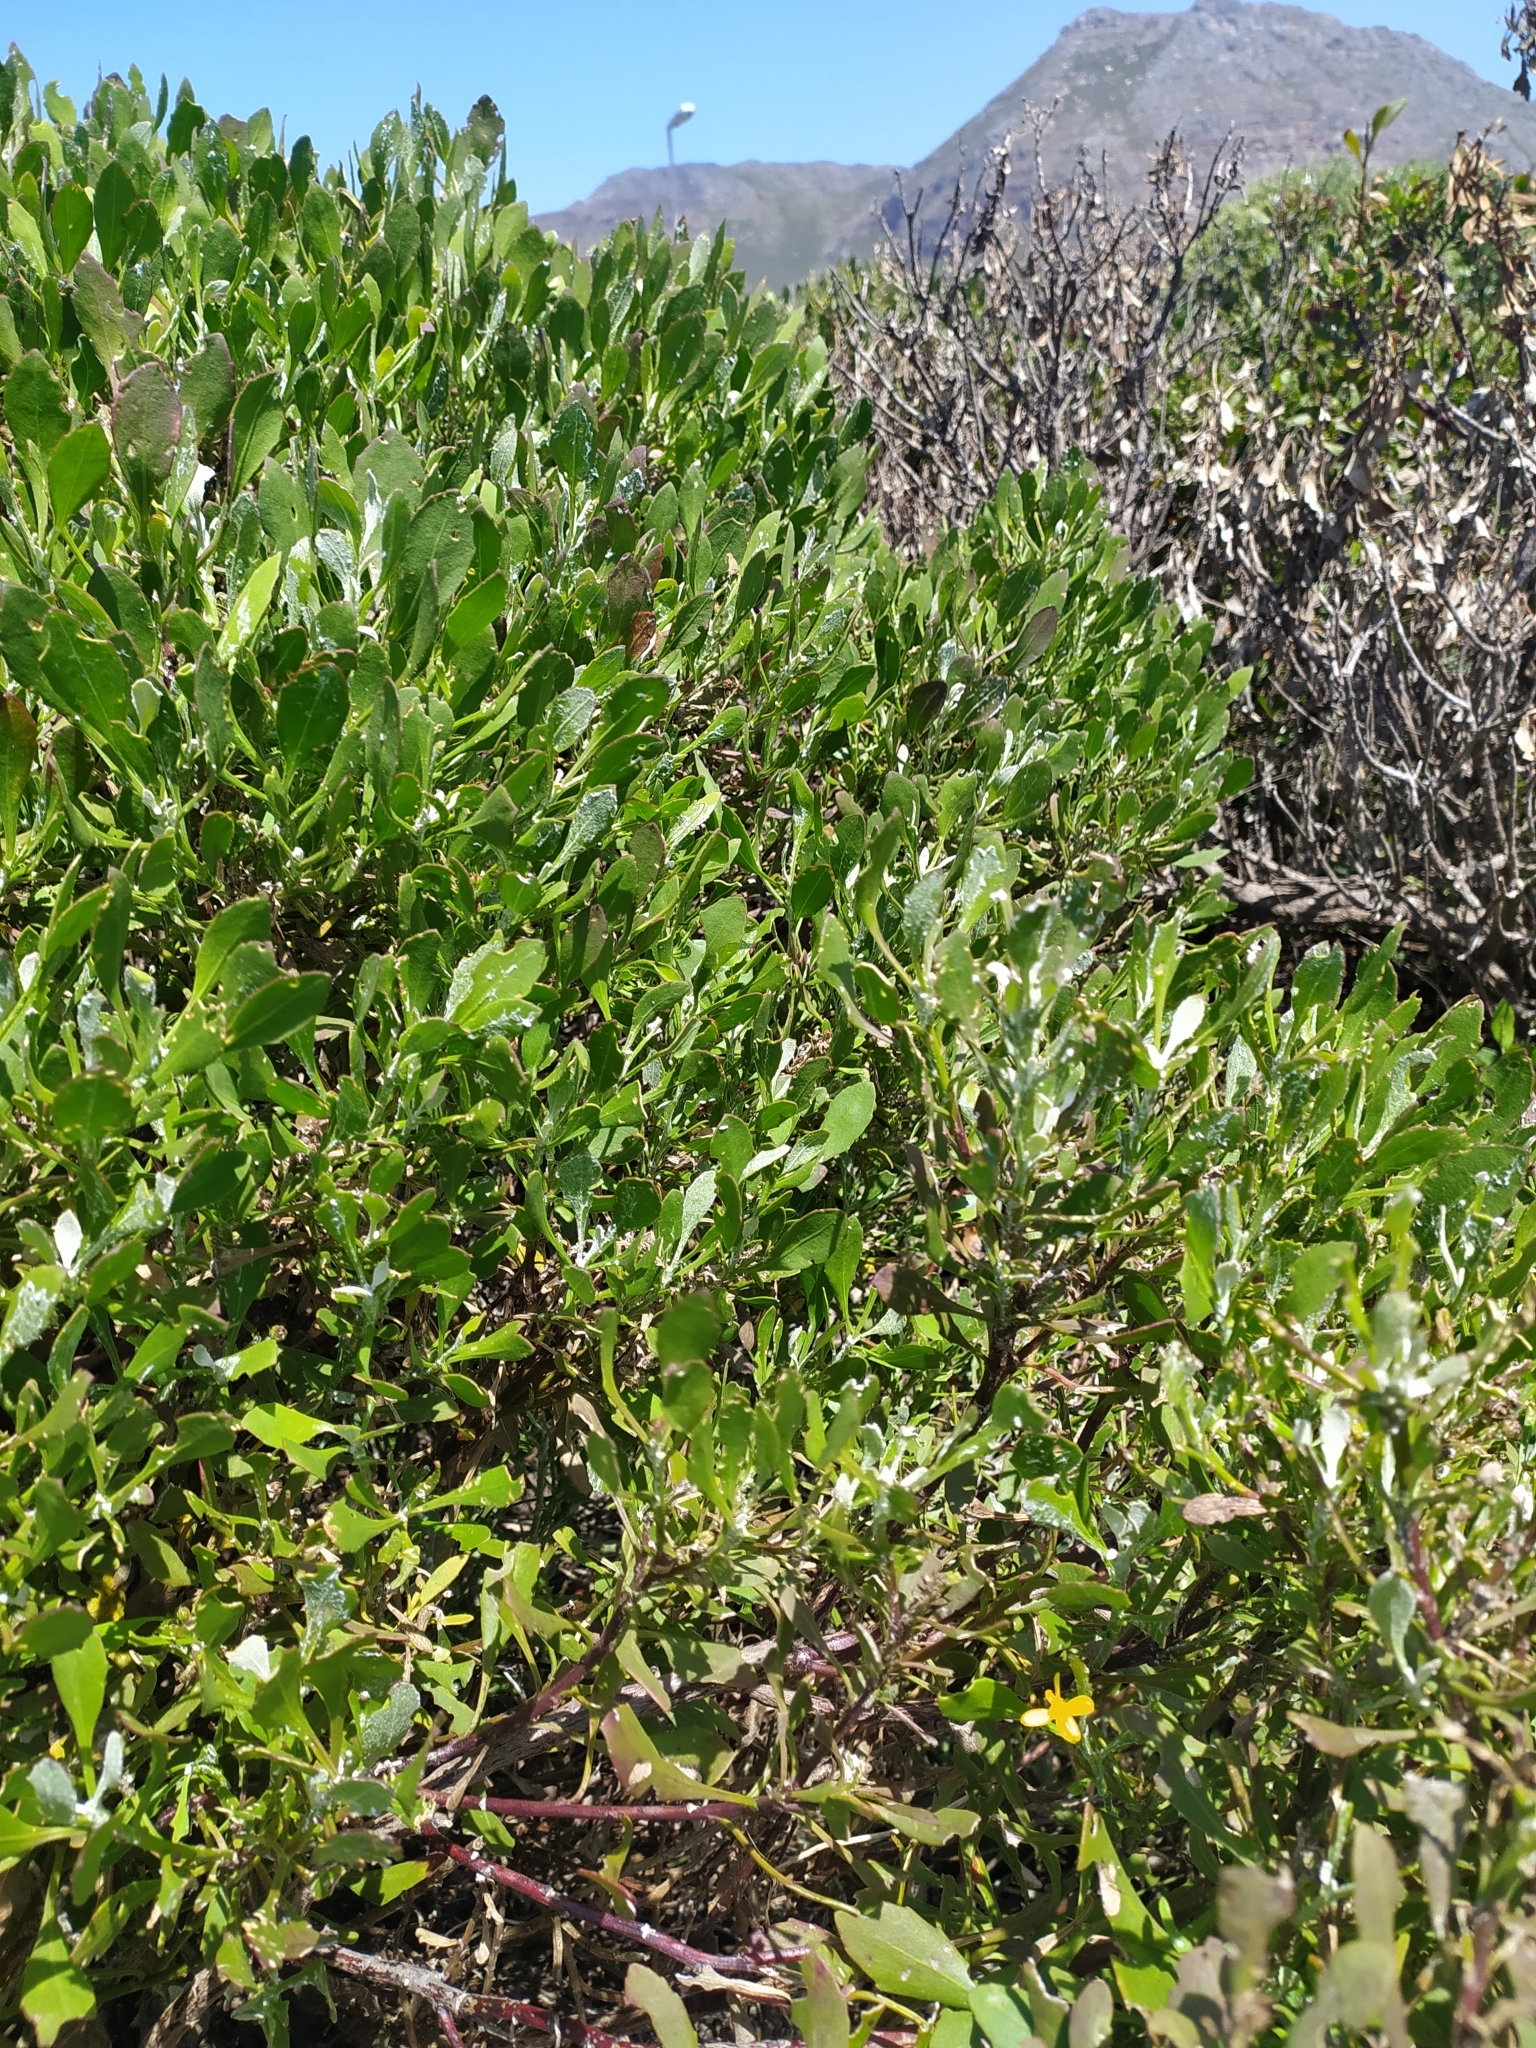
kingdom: Plantae
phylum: Tracheophyta
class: Magnoliopsida
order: Asterales
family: Asteraceae
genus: Osteospermum
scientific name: Osteospermum moniliferum
